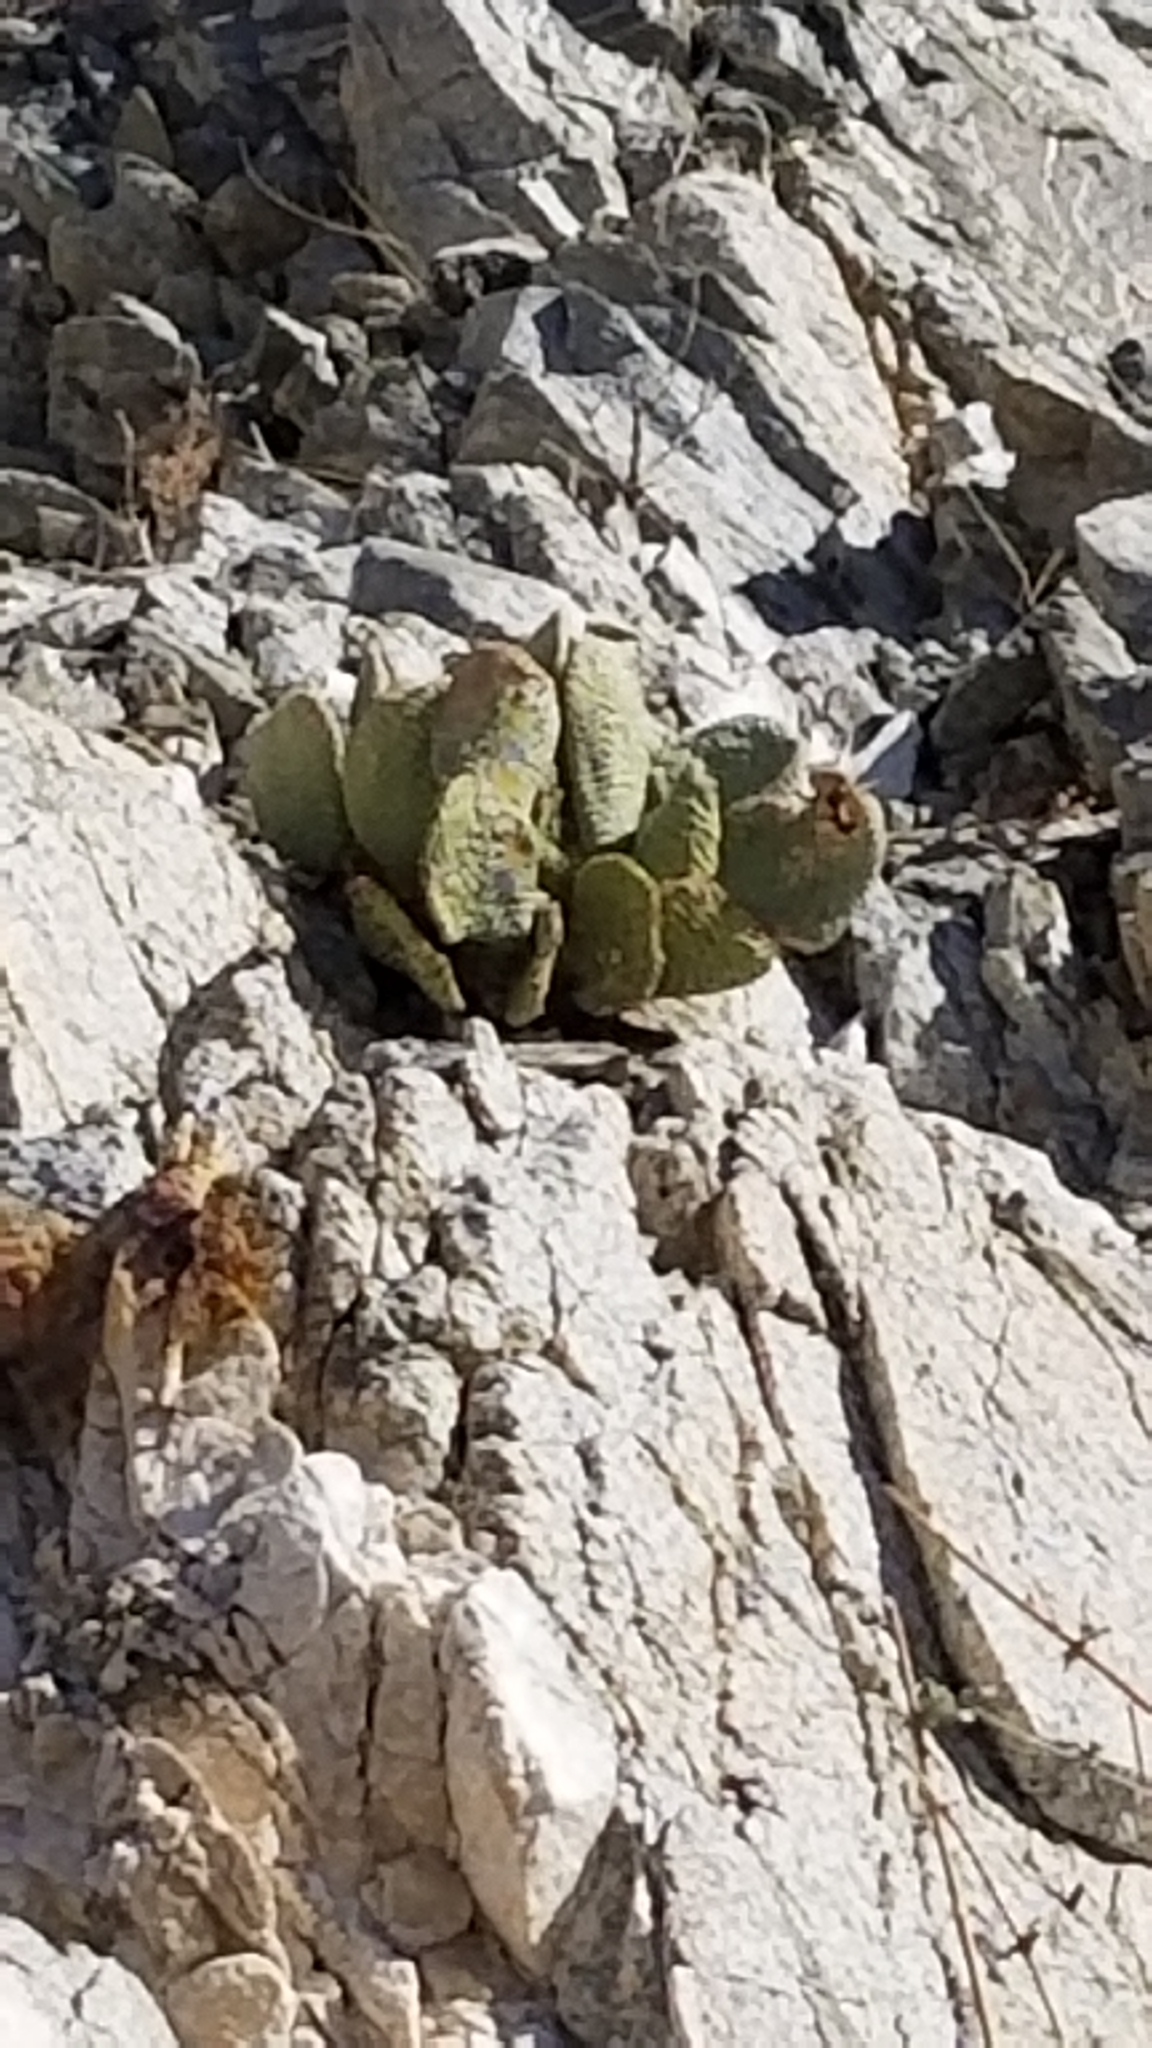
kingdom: Plantae
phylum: Tracheophyta
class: Magnoliopsida
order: Caryophyllales
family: Cactaceae
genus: Opuntia
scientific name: Opuntia basilaris
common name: Beavertail prickly-pear
